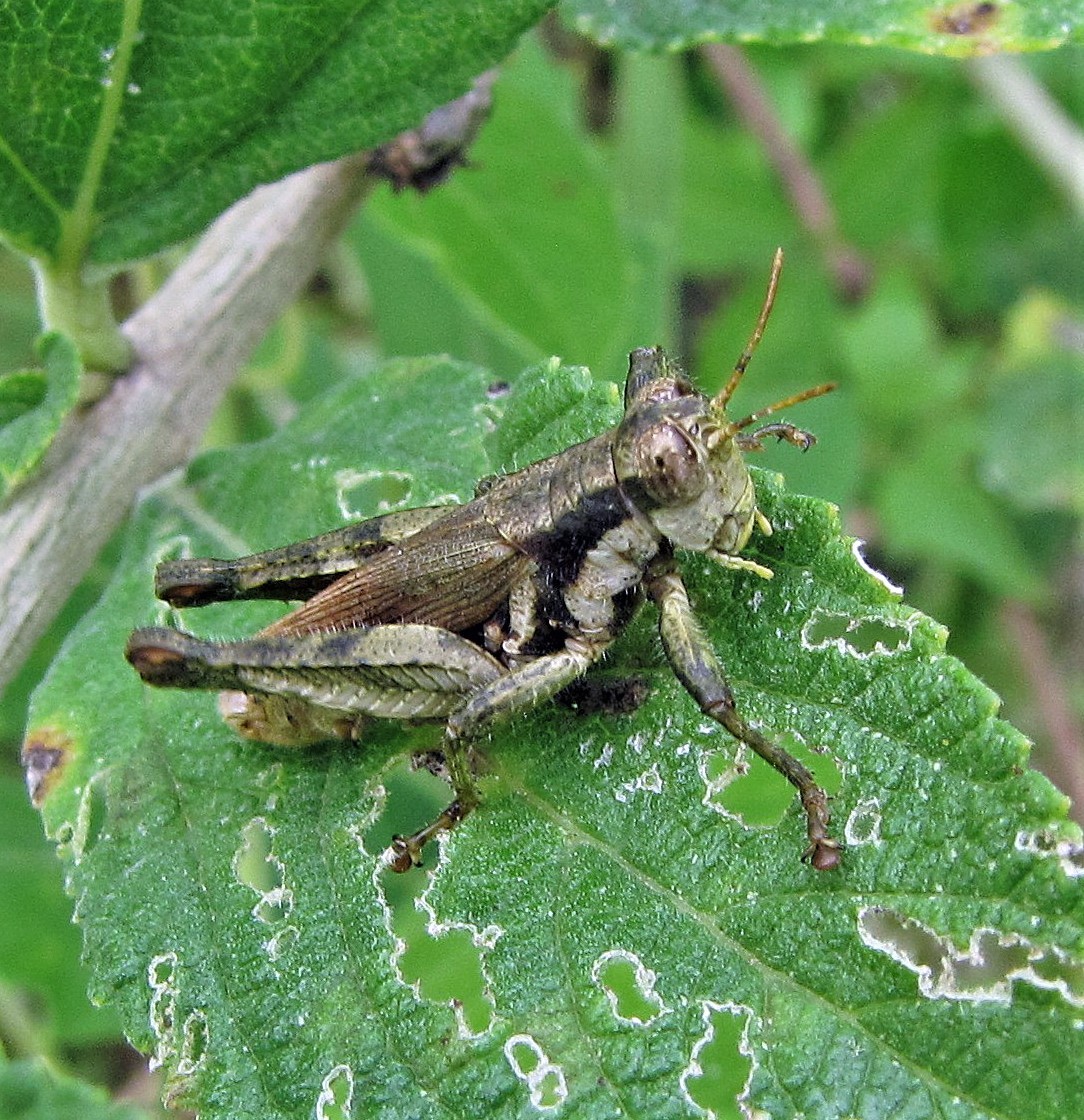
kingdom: Animalia
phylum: Arthropoda
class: Insecta
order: Orthoptera
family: Acrididae
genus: Ronderosia
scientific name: Ronderosia bergii
